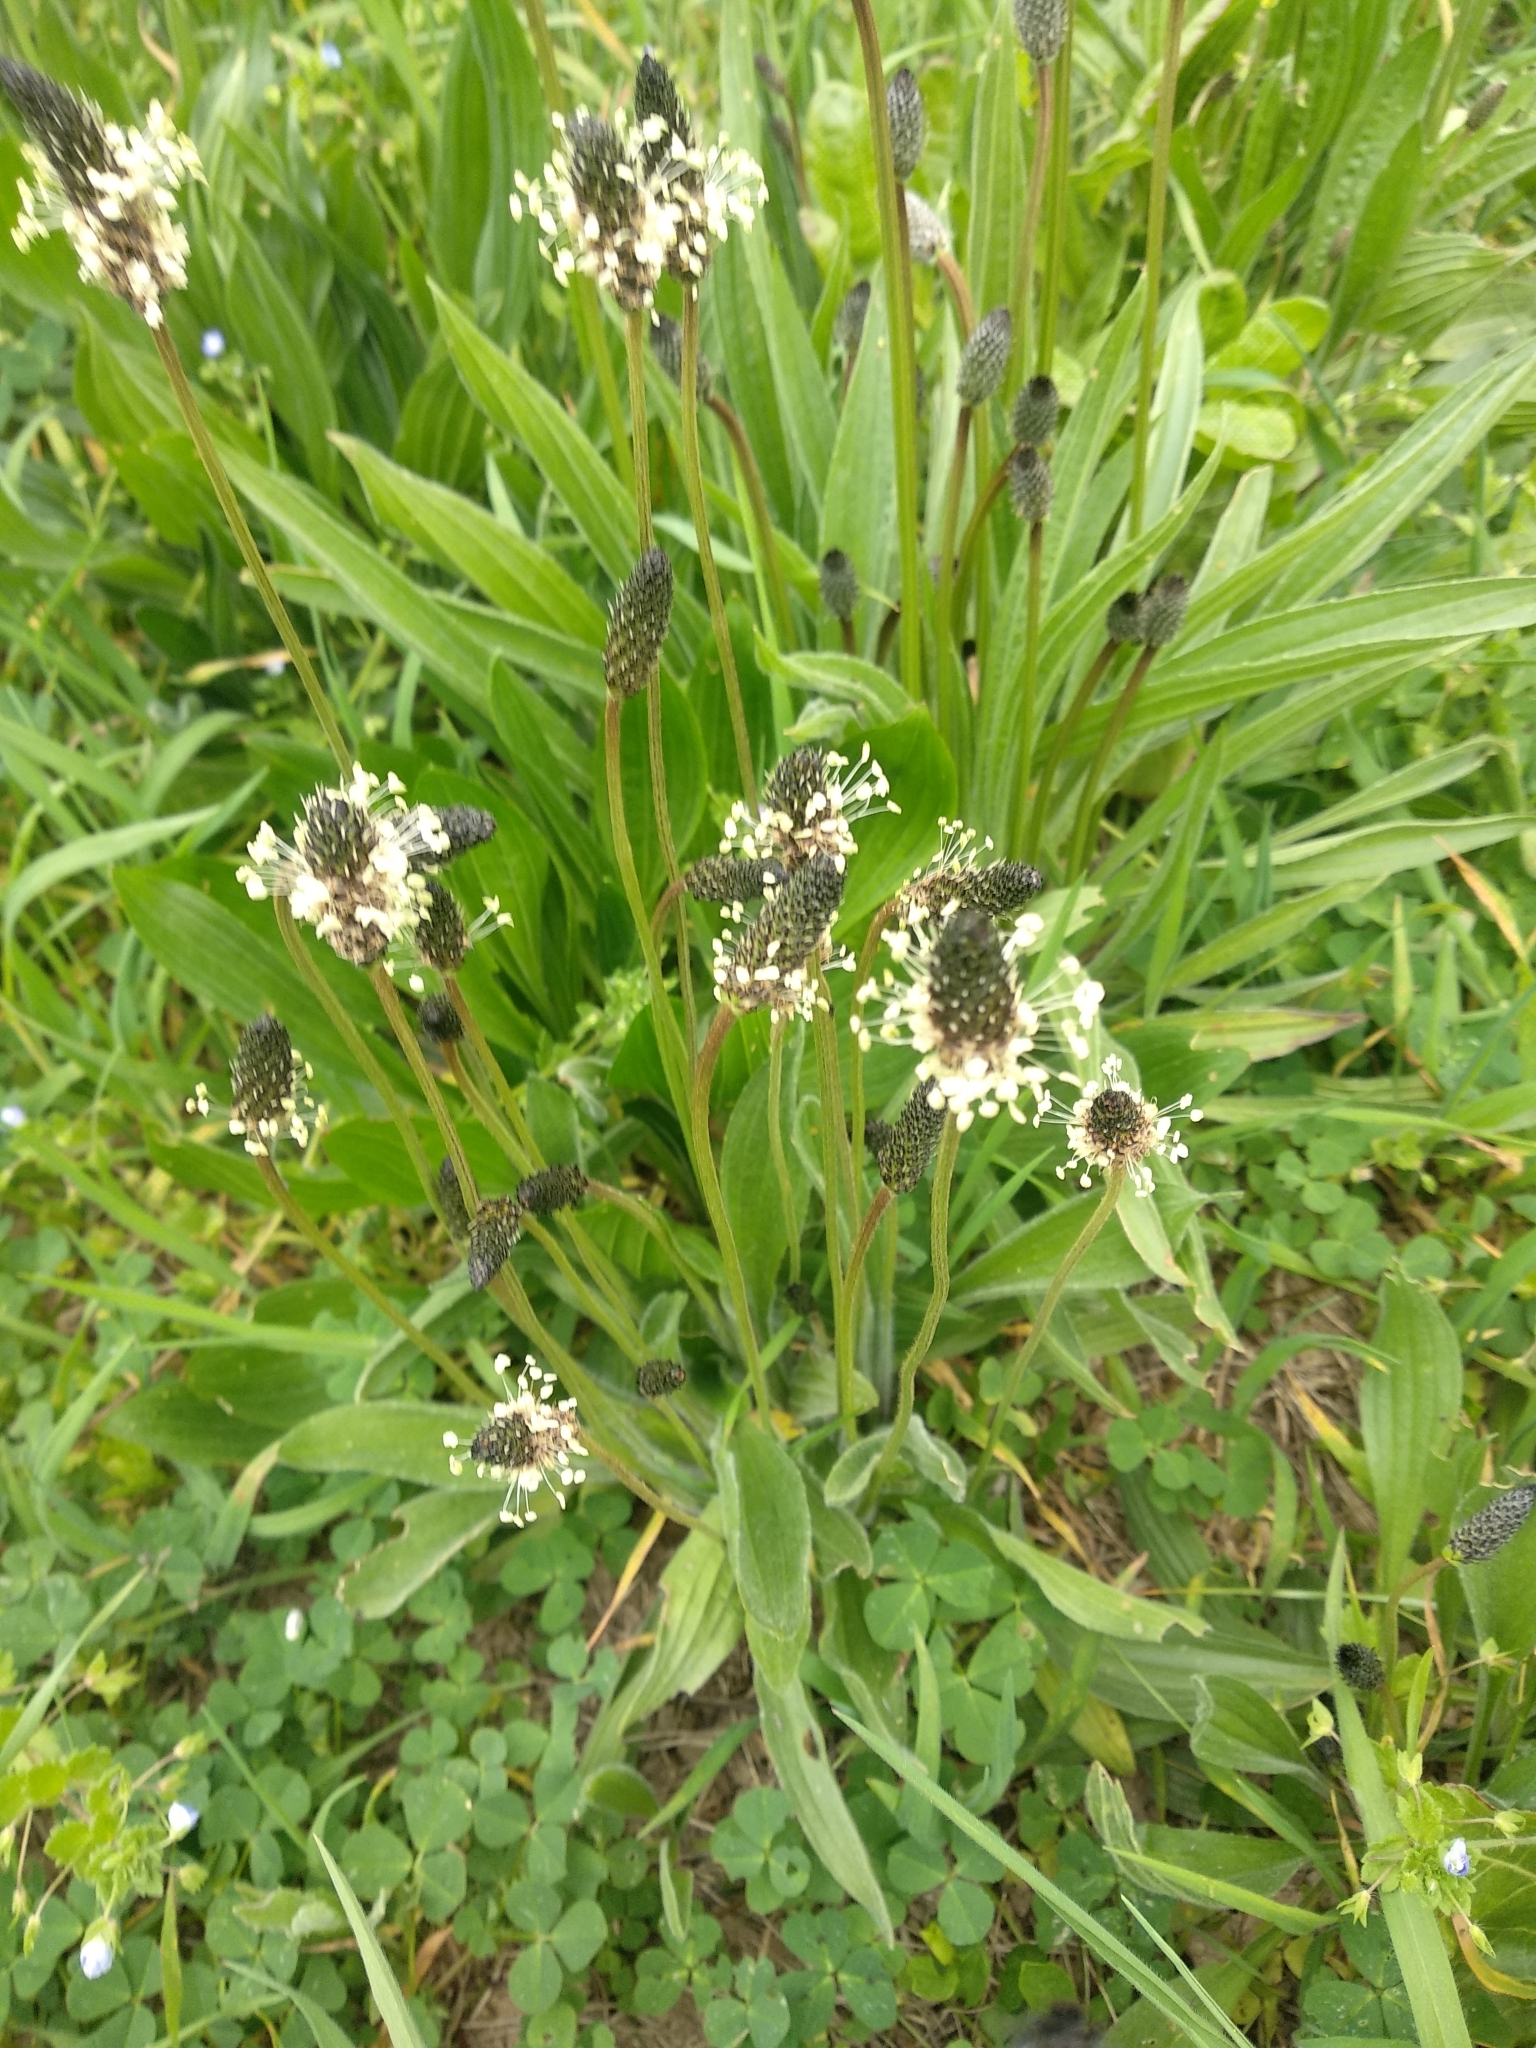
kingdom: Plantae
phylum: Tracheophyta
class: Magnoliopsida
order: Lamiales
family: Plantaginaceae
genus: Plantago
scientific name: Plantago lanceolata
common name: Ribwort plantain
